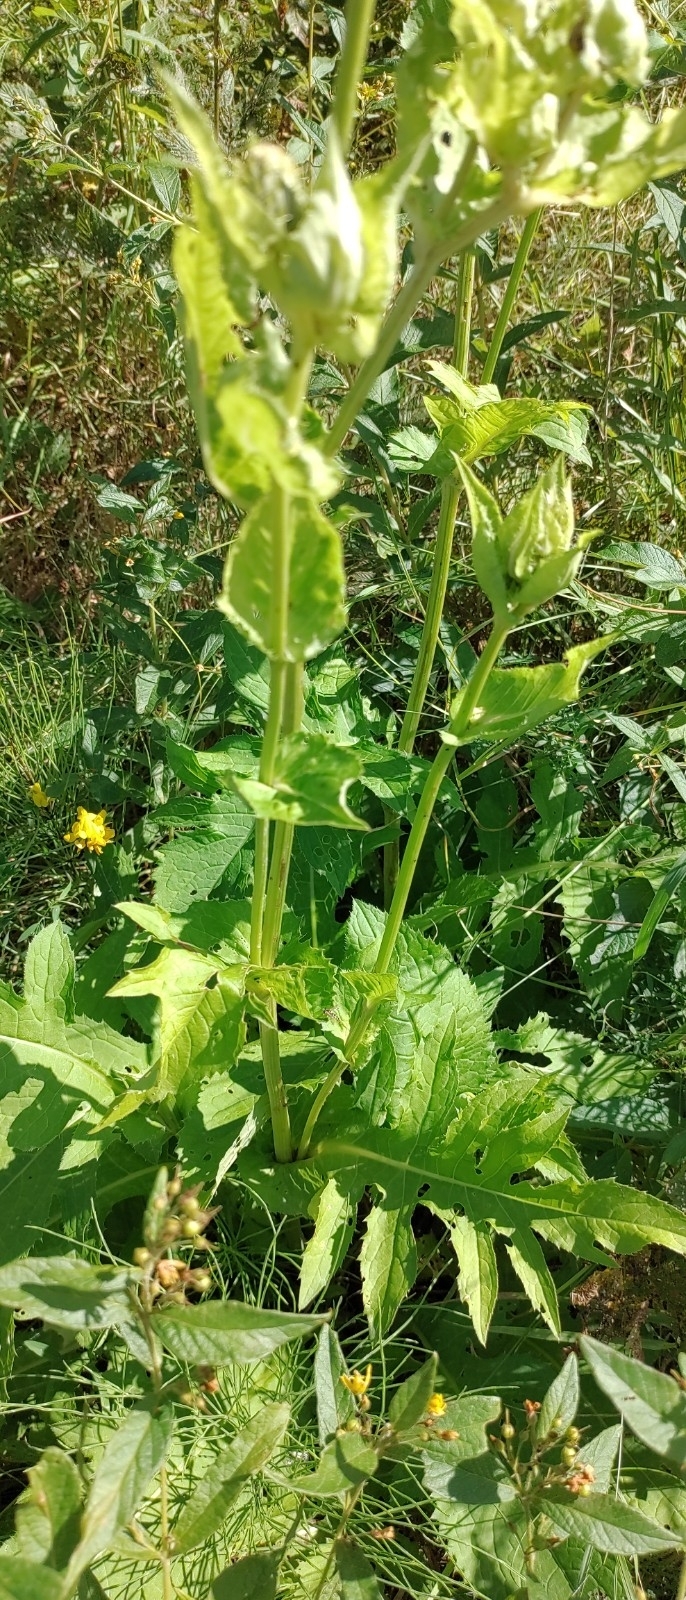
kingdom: Plantae
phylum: Tracheophyta
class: Magnoliopsida
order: Asterales
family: Asteraceae
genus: Cirsium
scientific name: Cirsium oleraceum
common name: Cabbage thistle
